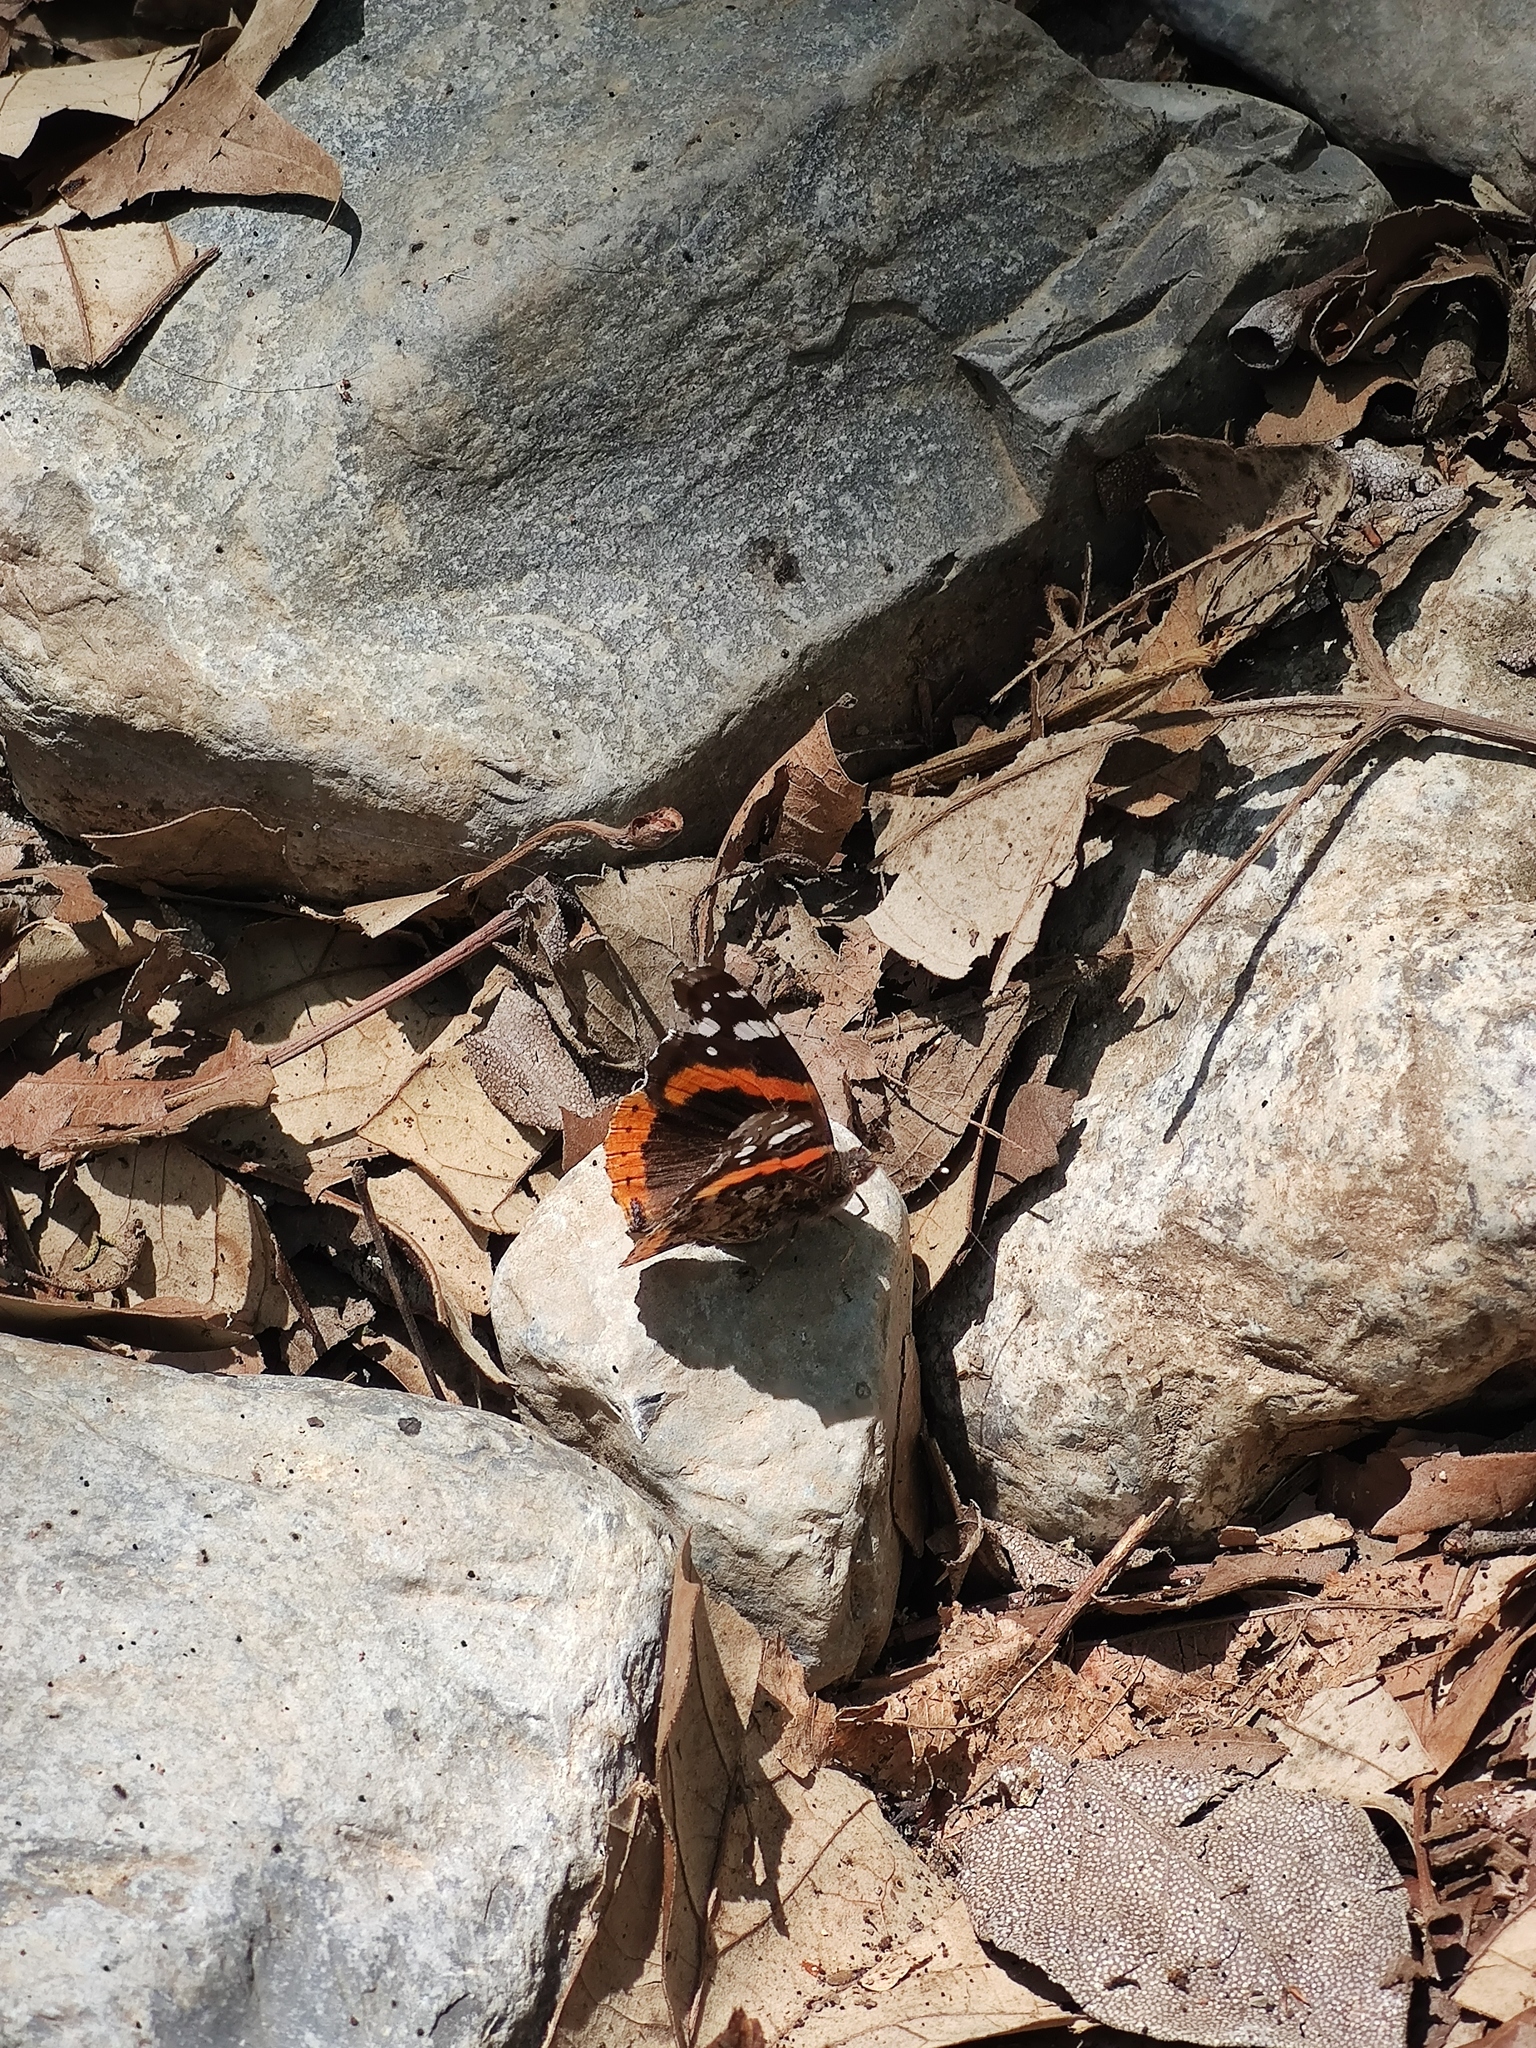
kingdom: Animalia
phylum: Arthropoda
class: Insecta
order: Lepidoptera
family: Nymphalidae
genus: Vanessa
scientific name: Vanessa atalanta
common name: Red admiral
